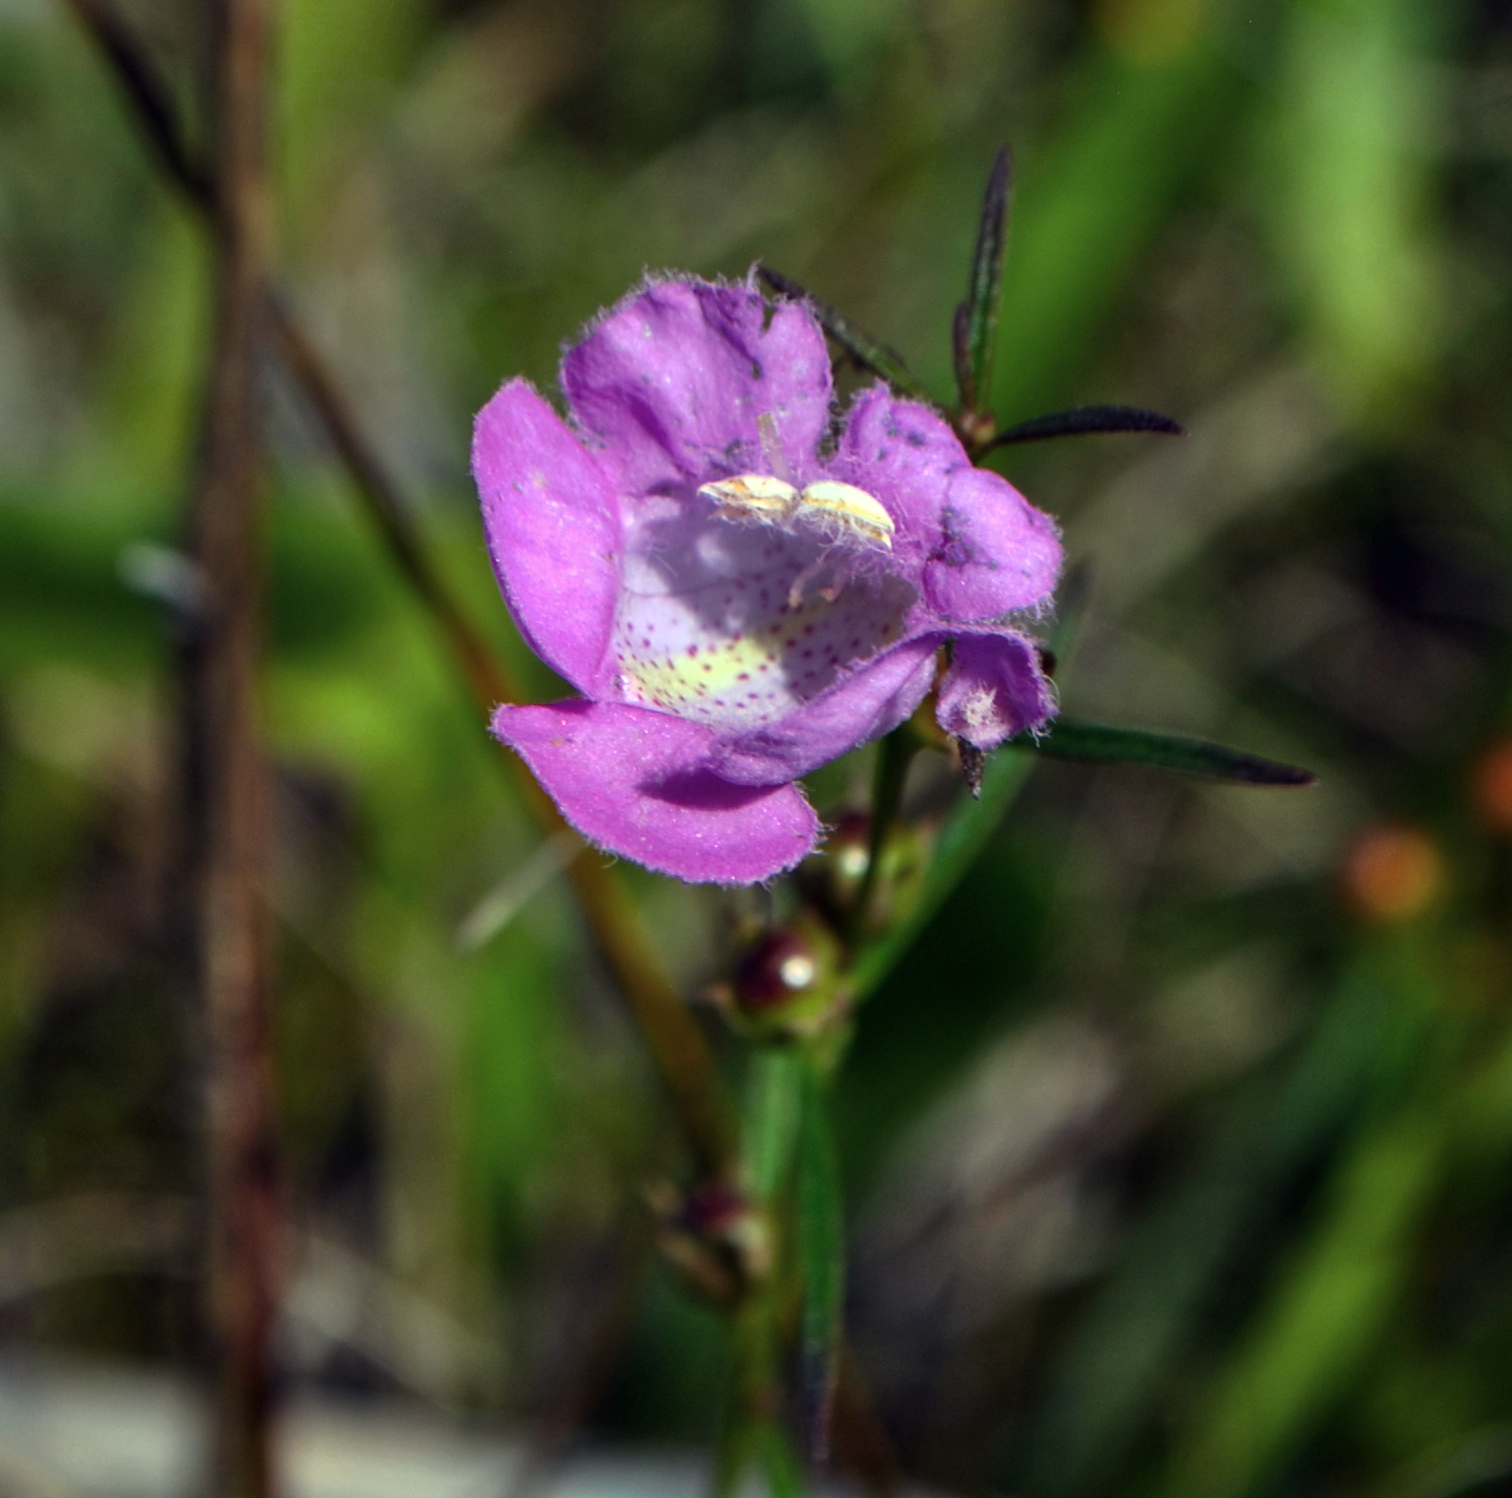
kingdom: Plantae
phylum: Tracheophyta
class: Magnoliopsida
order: Lamiales
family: Orobanchaceae
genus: Agalinis
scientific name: Agalinis purpurea
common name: Purple false foxglove
